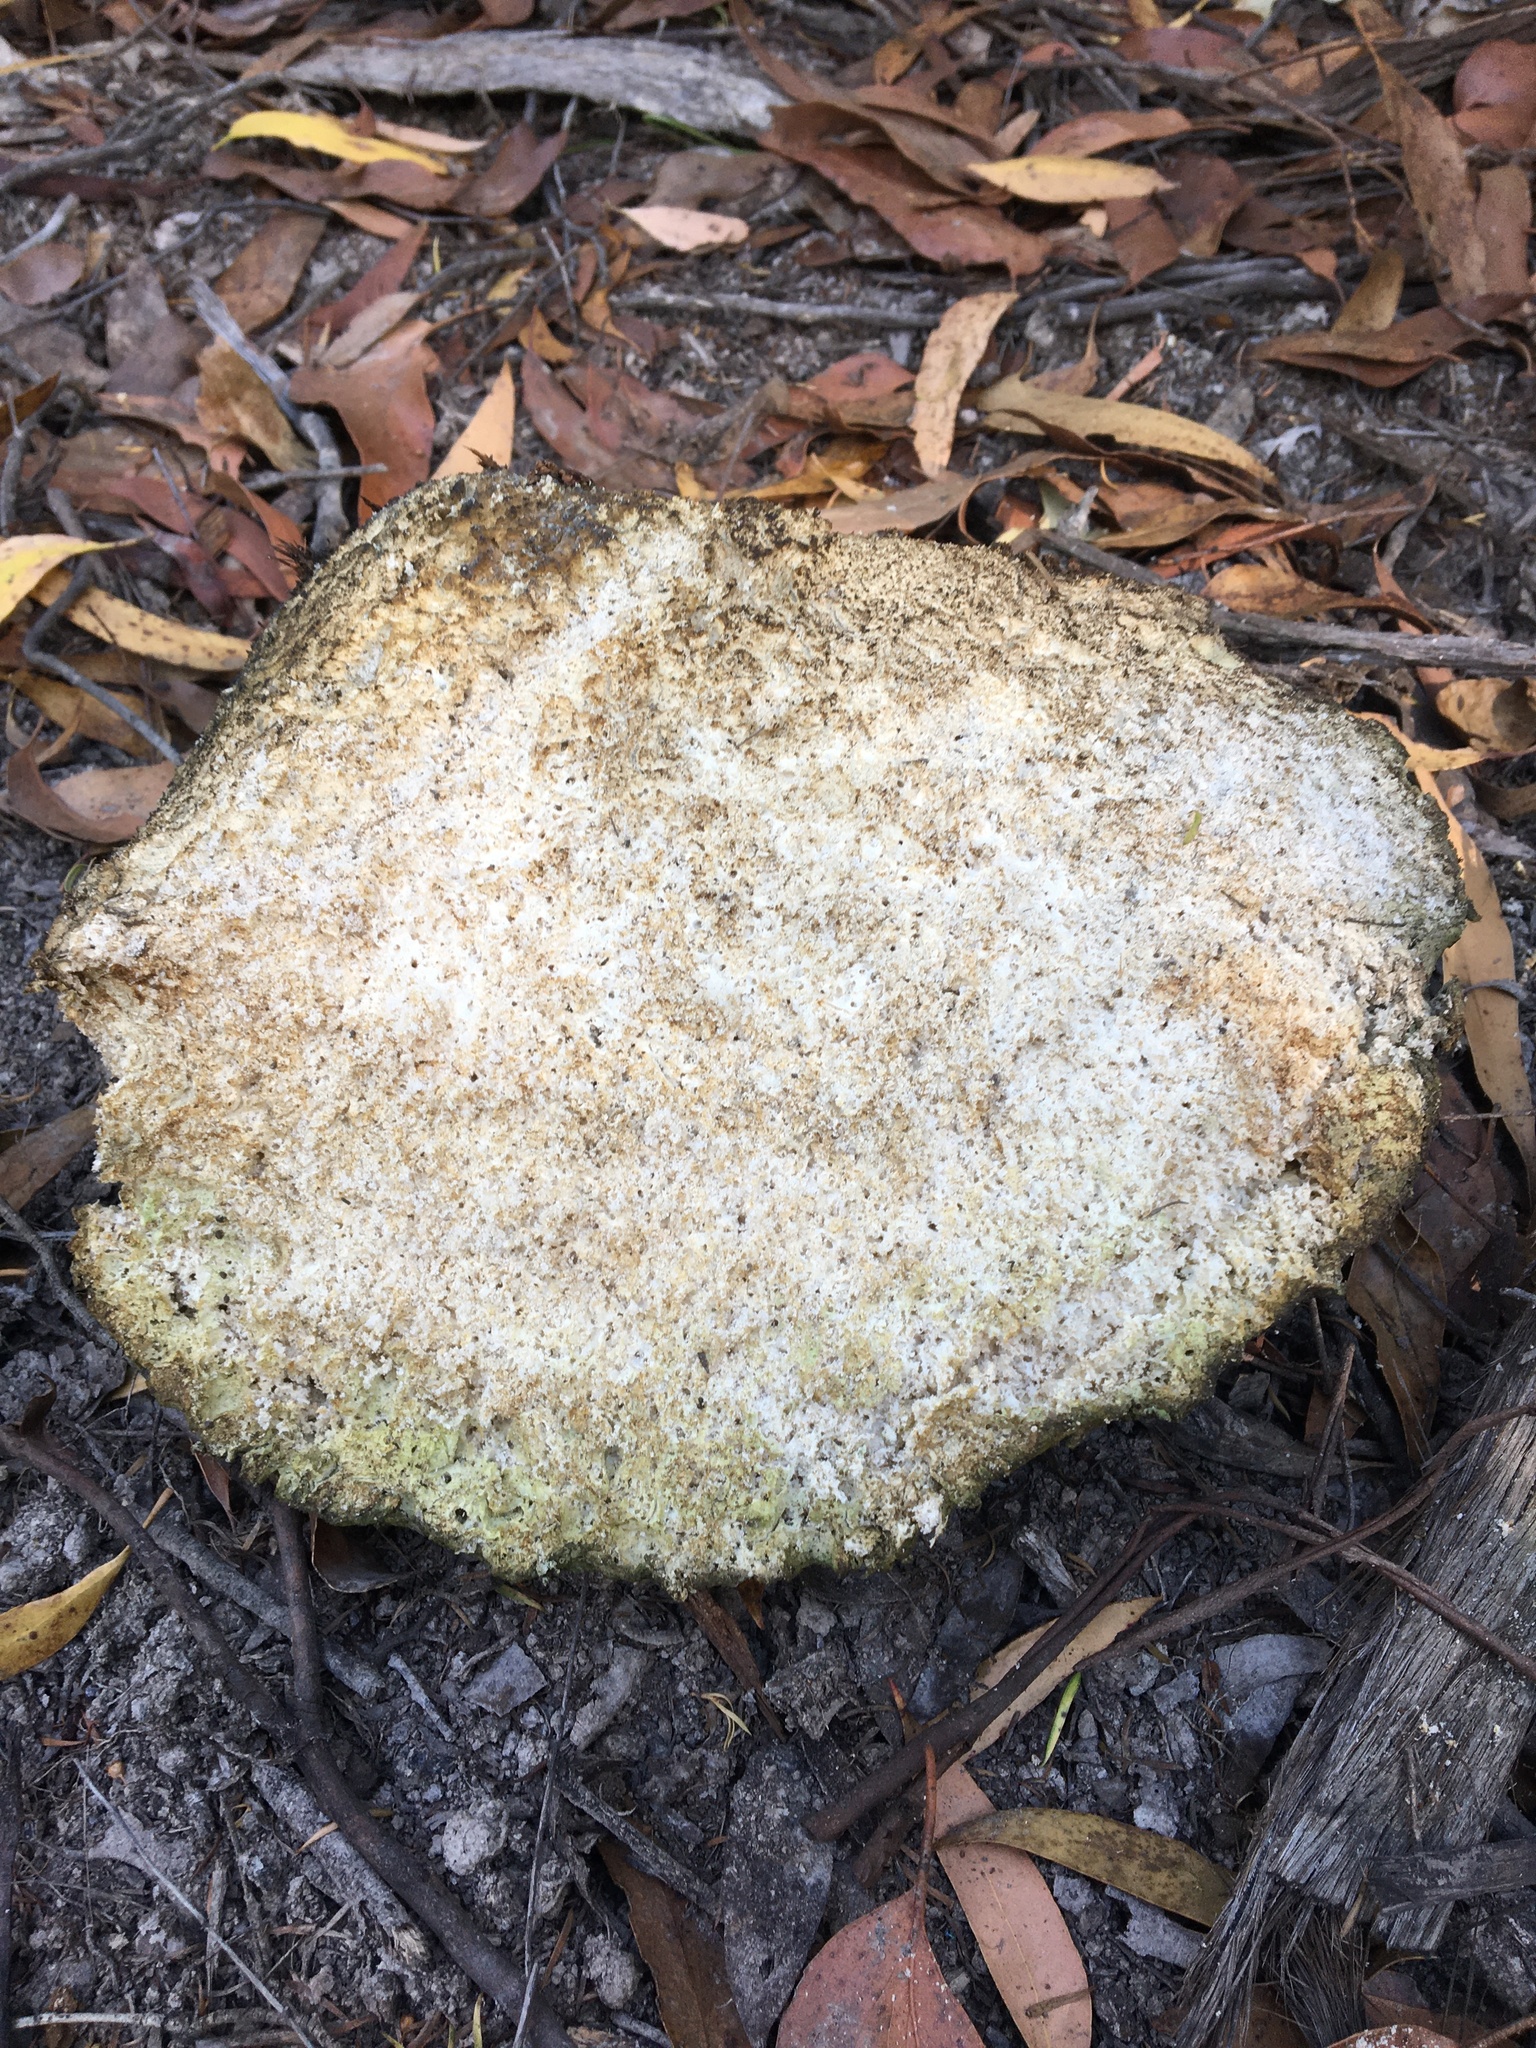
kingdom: Fungi
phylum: Basidiomycota
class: Agaricomycetes
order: Polyporales
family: Laetiporaceae
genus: Laetiporus
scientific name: Laetiporus portentosus
